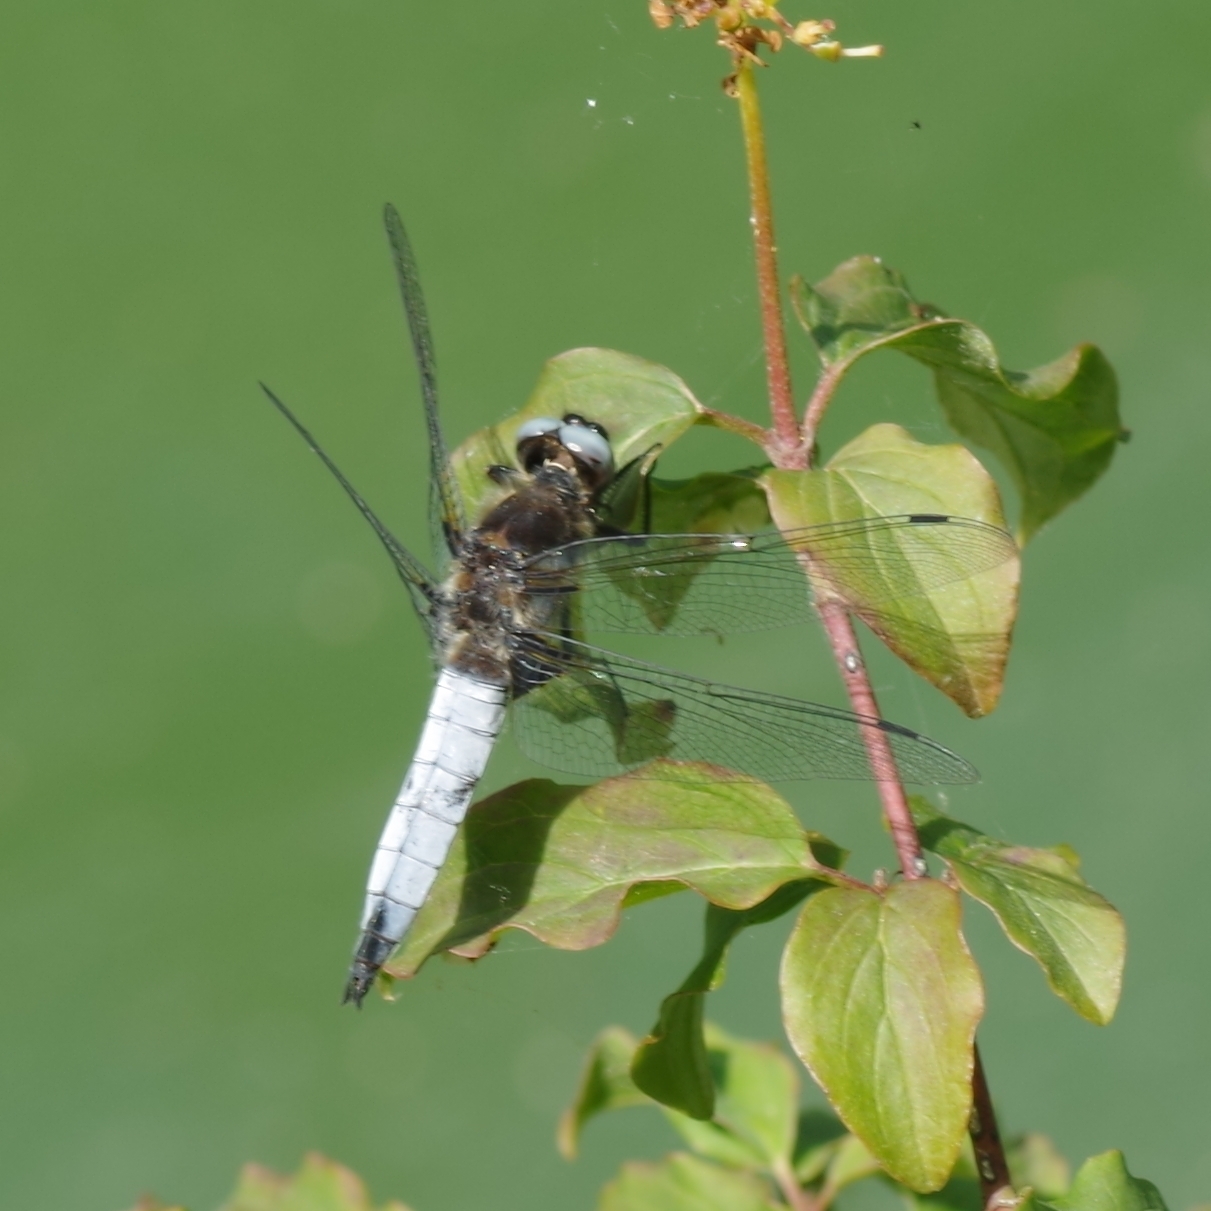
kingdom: Animalia
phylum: Arthropoda
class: Insecta
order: Odonata
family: Libellulidae
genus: Libellula
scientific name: Libellula fulva
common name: Blue chaser
